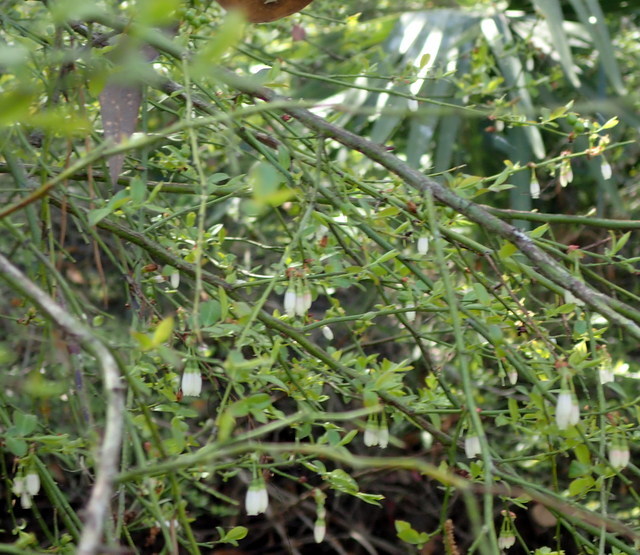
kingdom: Plantae
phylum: Tracheophyta
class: Magnoliopsida
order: Ericales
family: Ericaceae
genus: Vaccinium
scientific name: Vaccinium corymbosum
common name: Blueberry
